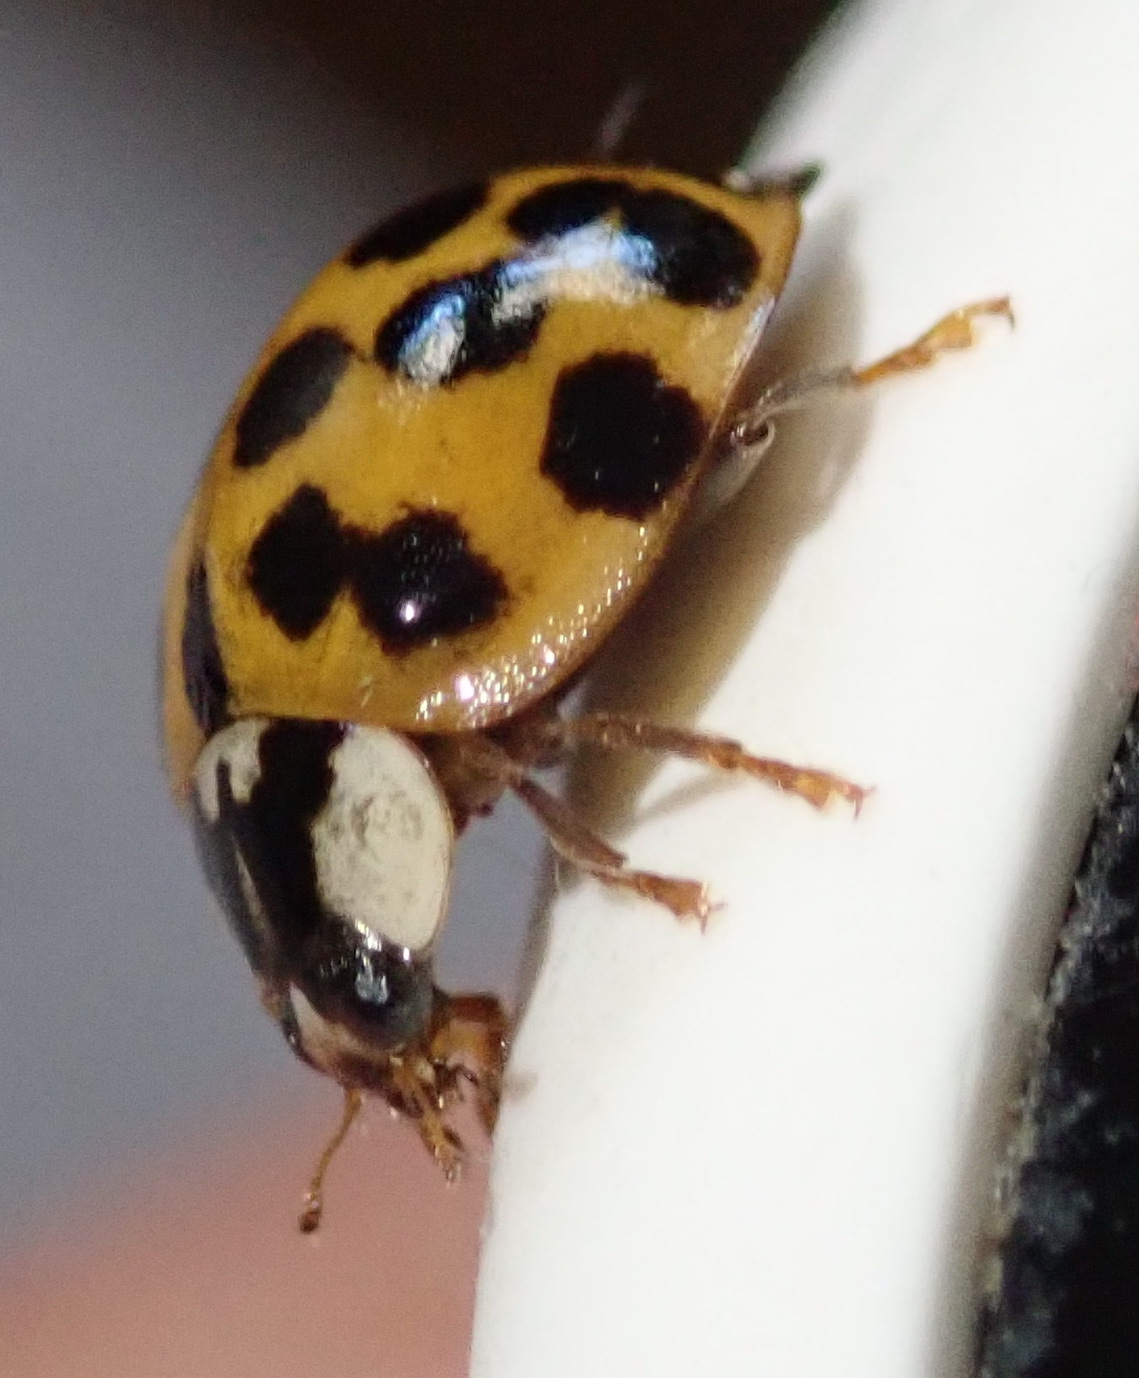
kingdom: Animalia
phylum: Arthropoda
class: Insecta
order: Coleoptera
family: Coccinellidae
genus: Harmonia
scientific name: Harmonia axyridis
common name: Harlequin ladybird
